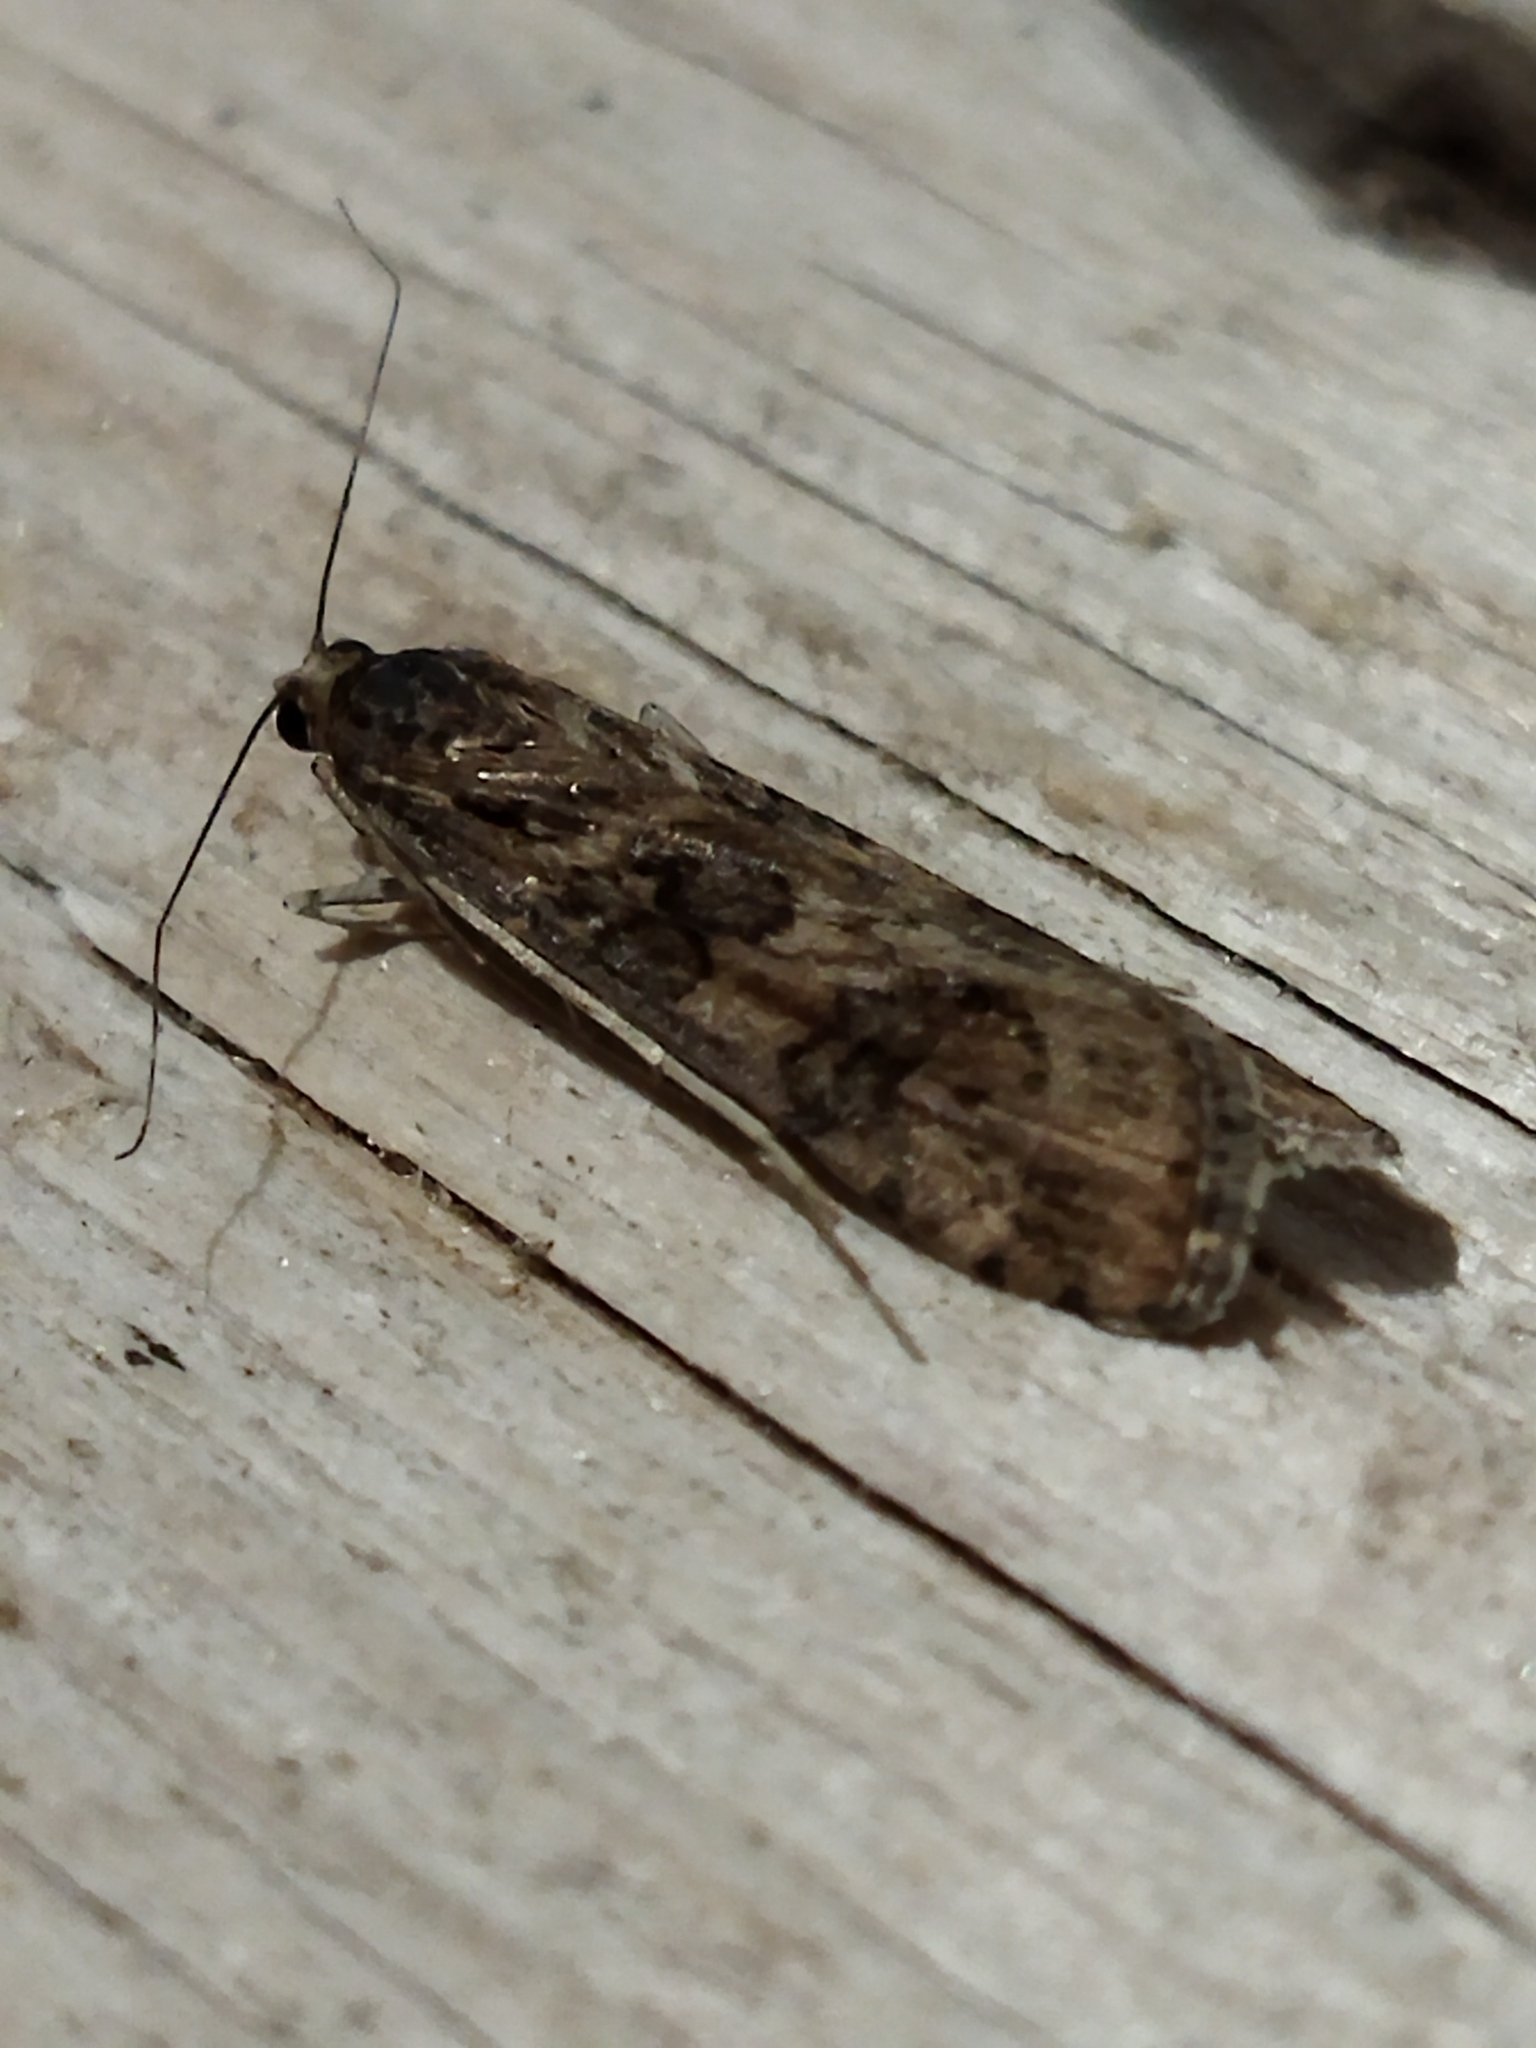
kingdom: Animalia
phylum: Arthropoda
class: Insecta
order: Lepidoptera
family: Crambidae
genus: Nomophila
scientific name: Nomophila noctuella
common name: Rush veneer
